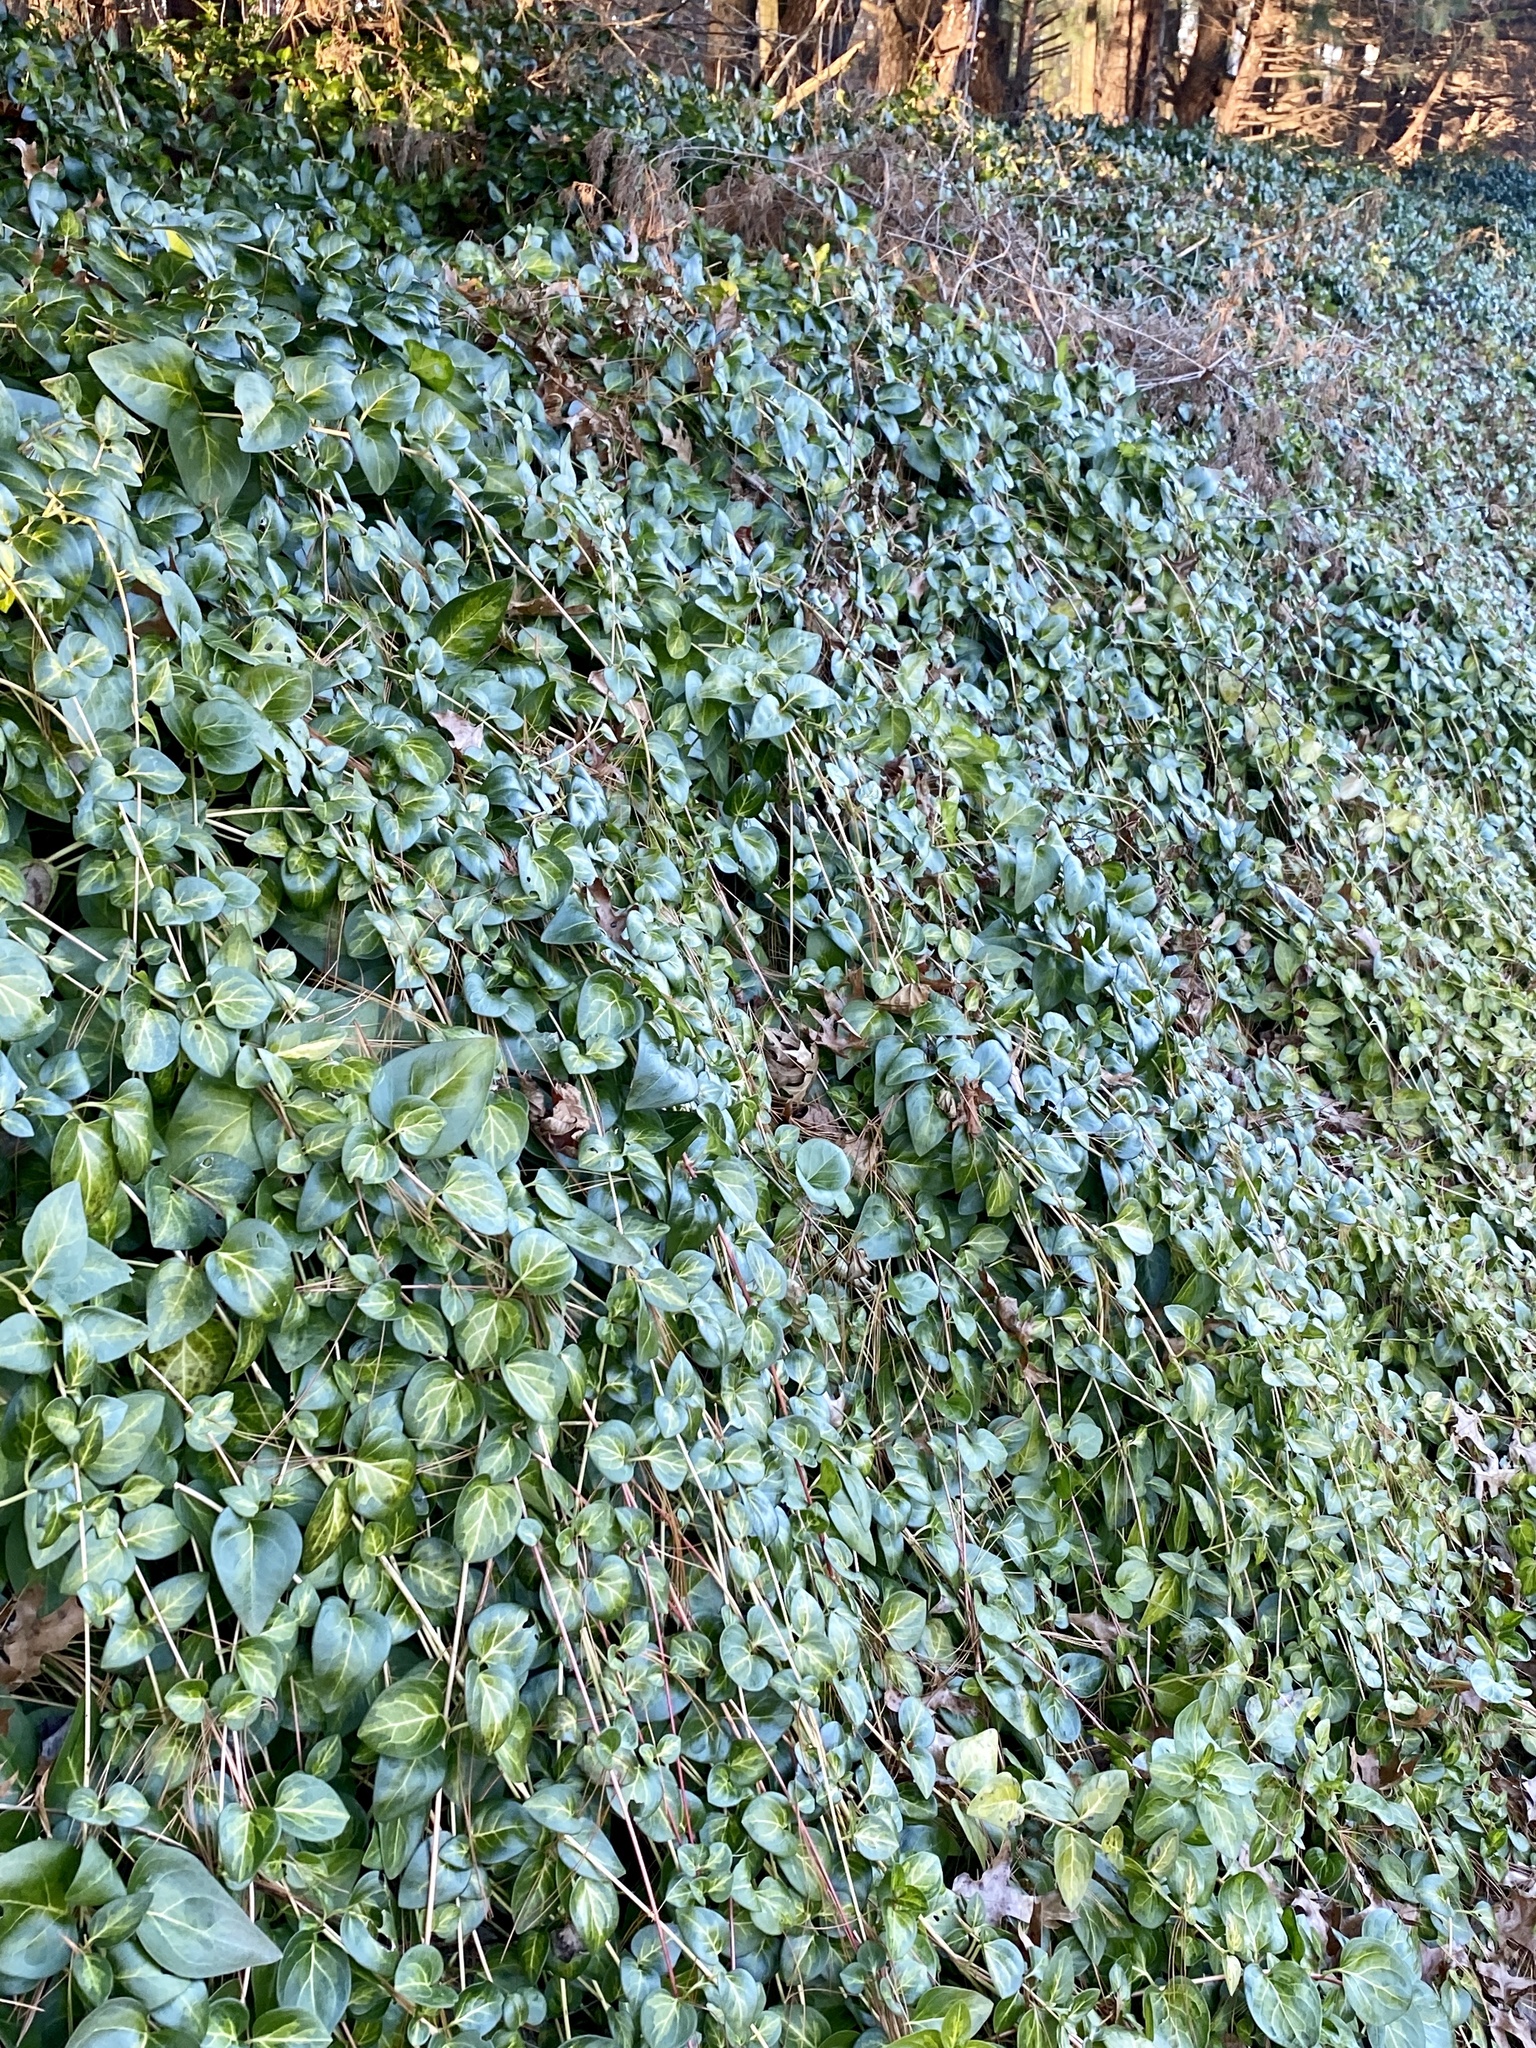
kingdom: Plantae
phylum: Tracheophyta
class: Magnoliopsida
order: Gentianales
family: Apocynaceae
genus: Vinca
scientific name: Vinca major
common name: Greater periwinkle
